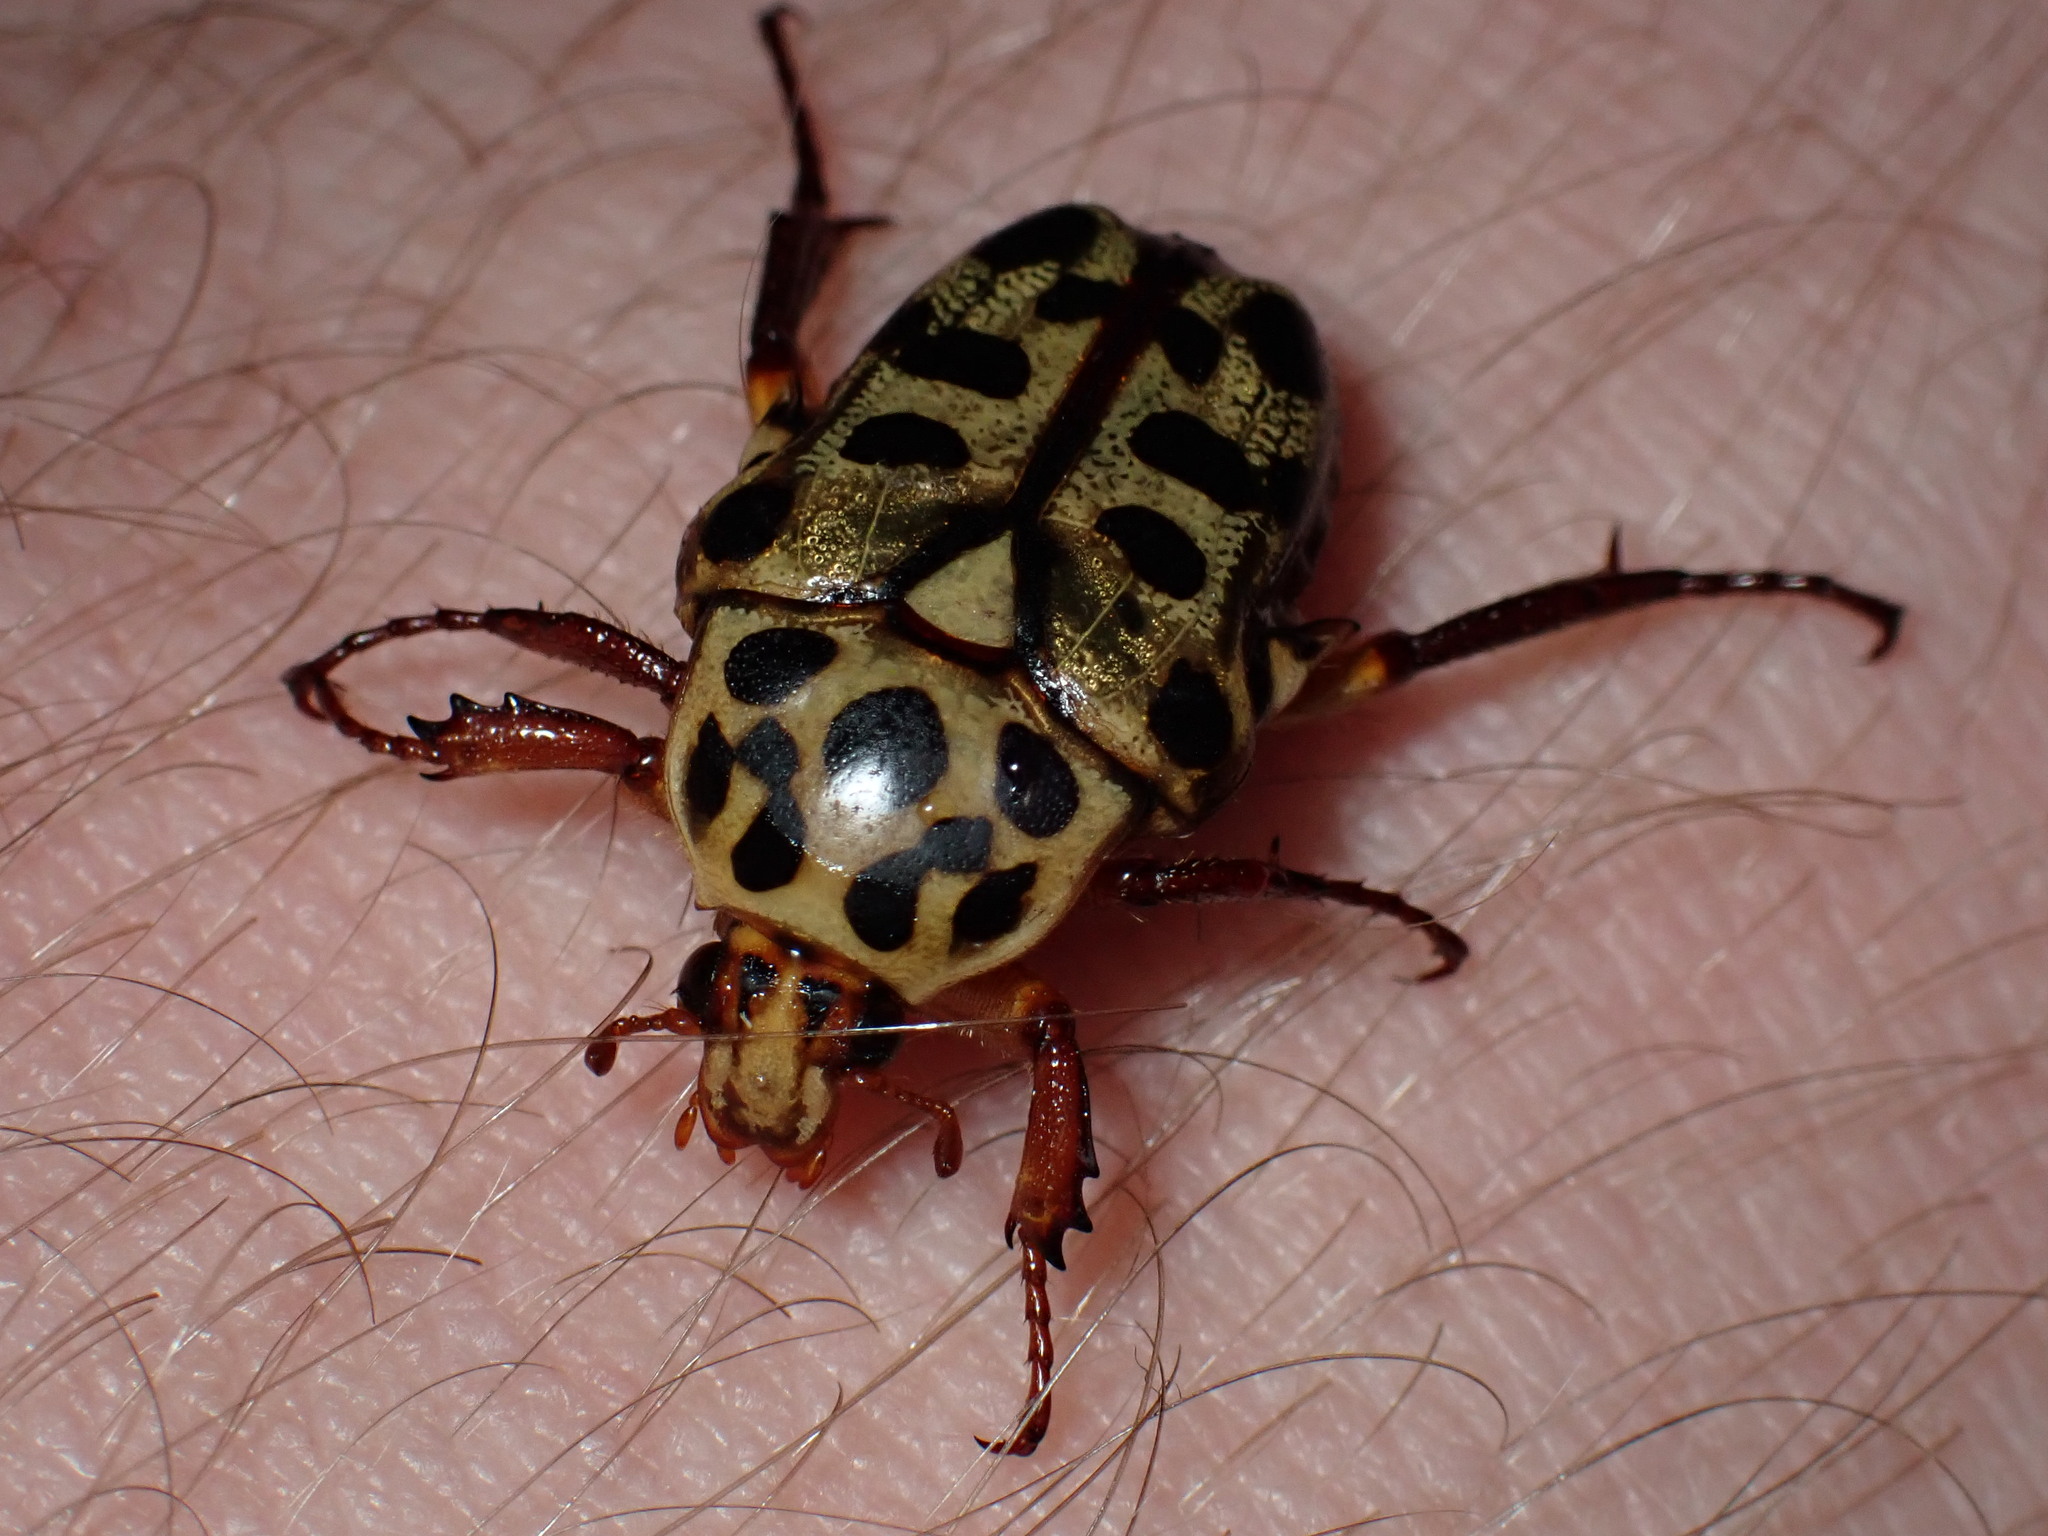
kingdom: Animalia
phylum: Arthropoda
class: Insecta
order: Coleoptera
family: Scarabaeidae
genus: Neorrhina
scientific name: Neorrhina punctatum
